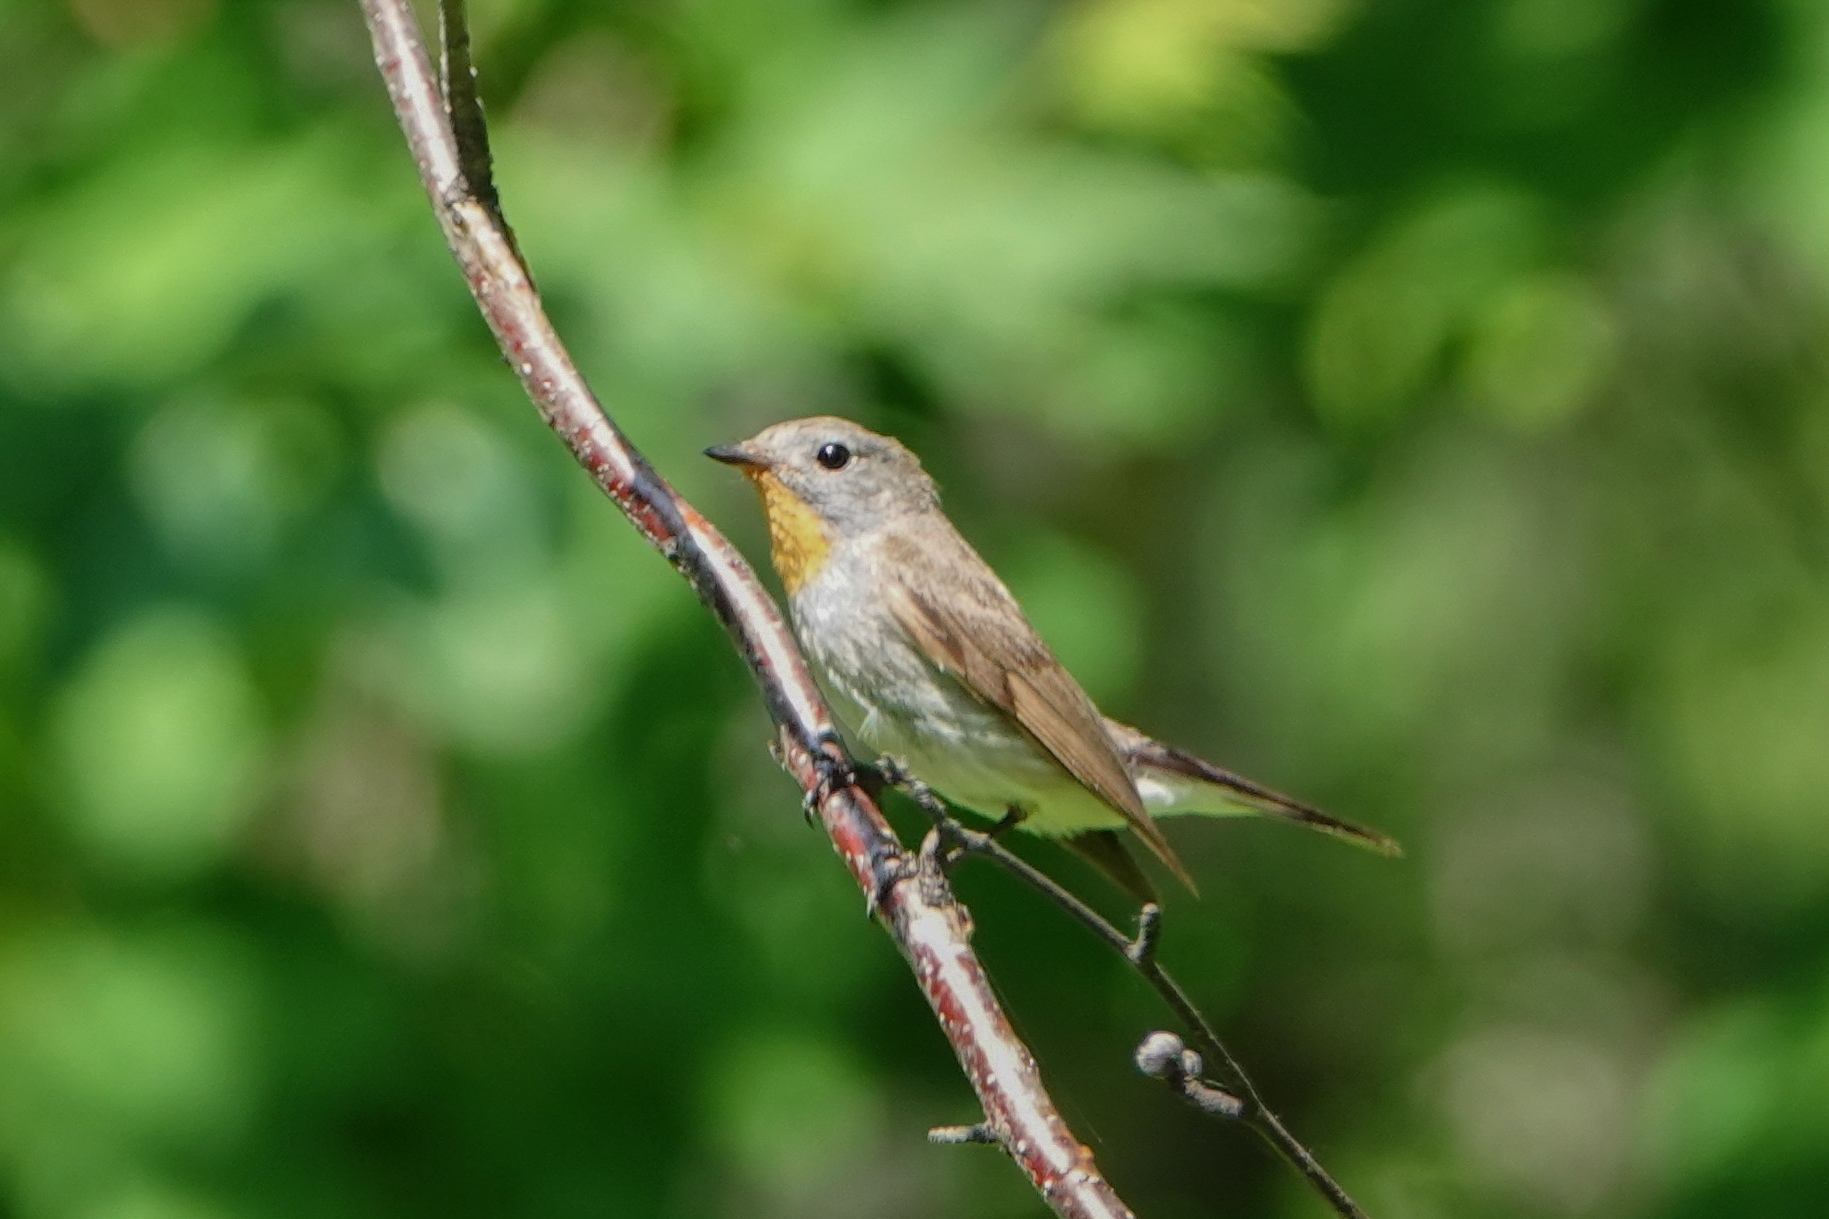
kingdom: Animalia
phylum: Chordata
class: Aves
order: Passeriformes
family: Muscicapidae
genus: Ficedula
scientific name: Ficedula albicilla
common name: Taiga flycatcher
